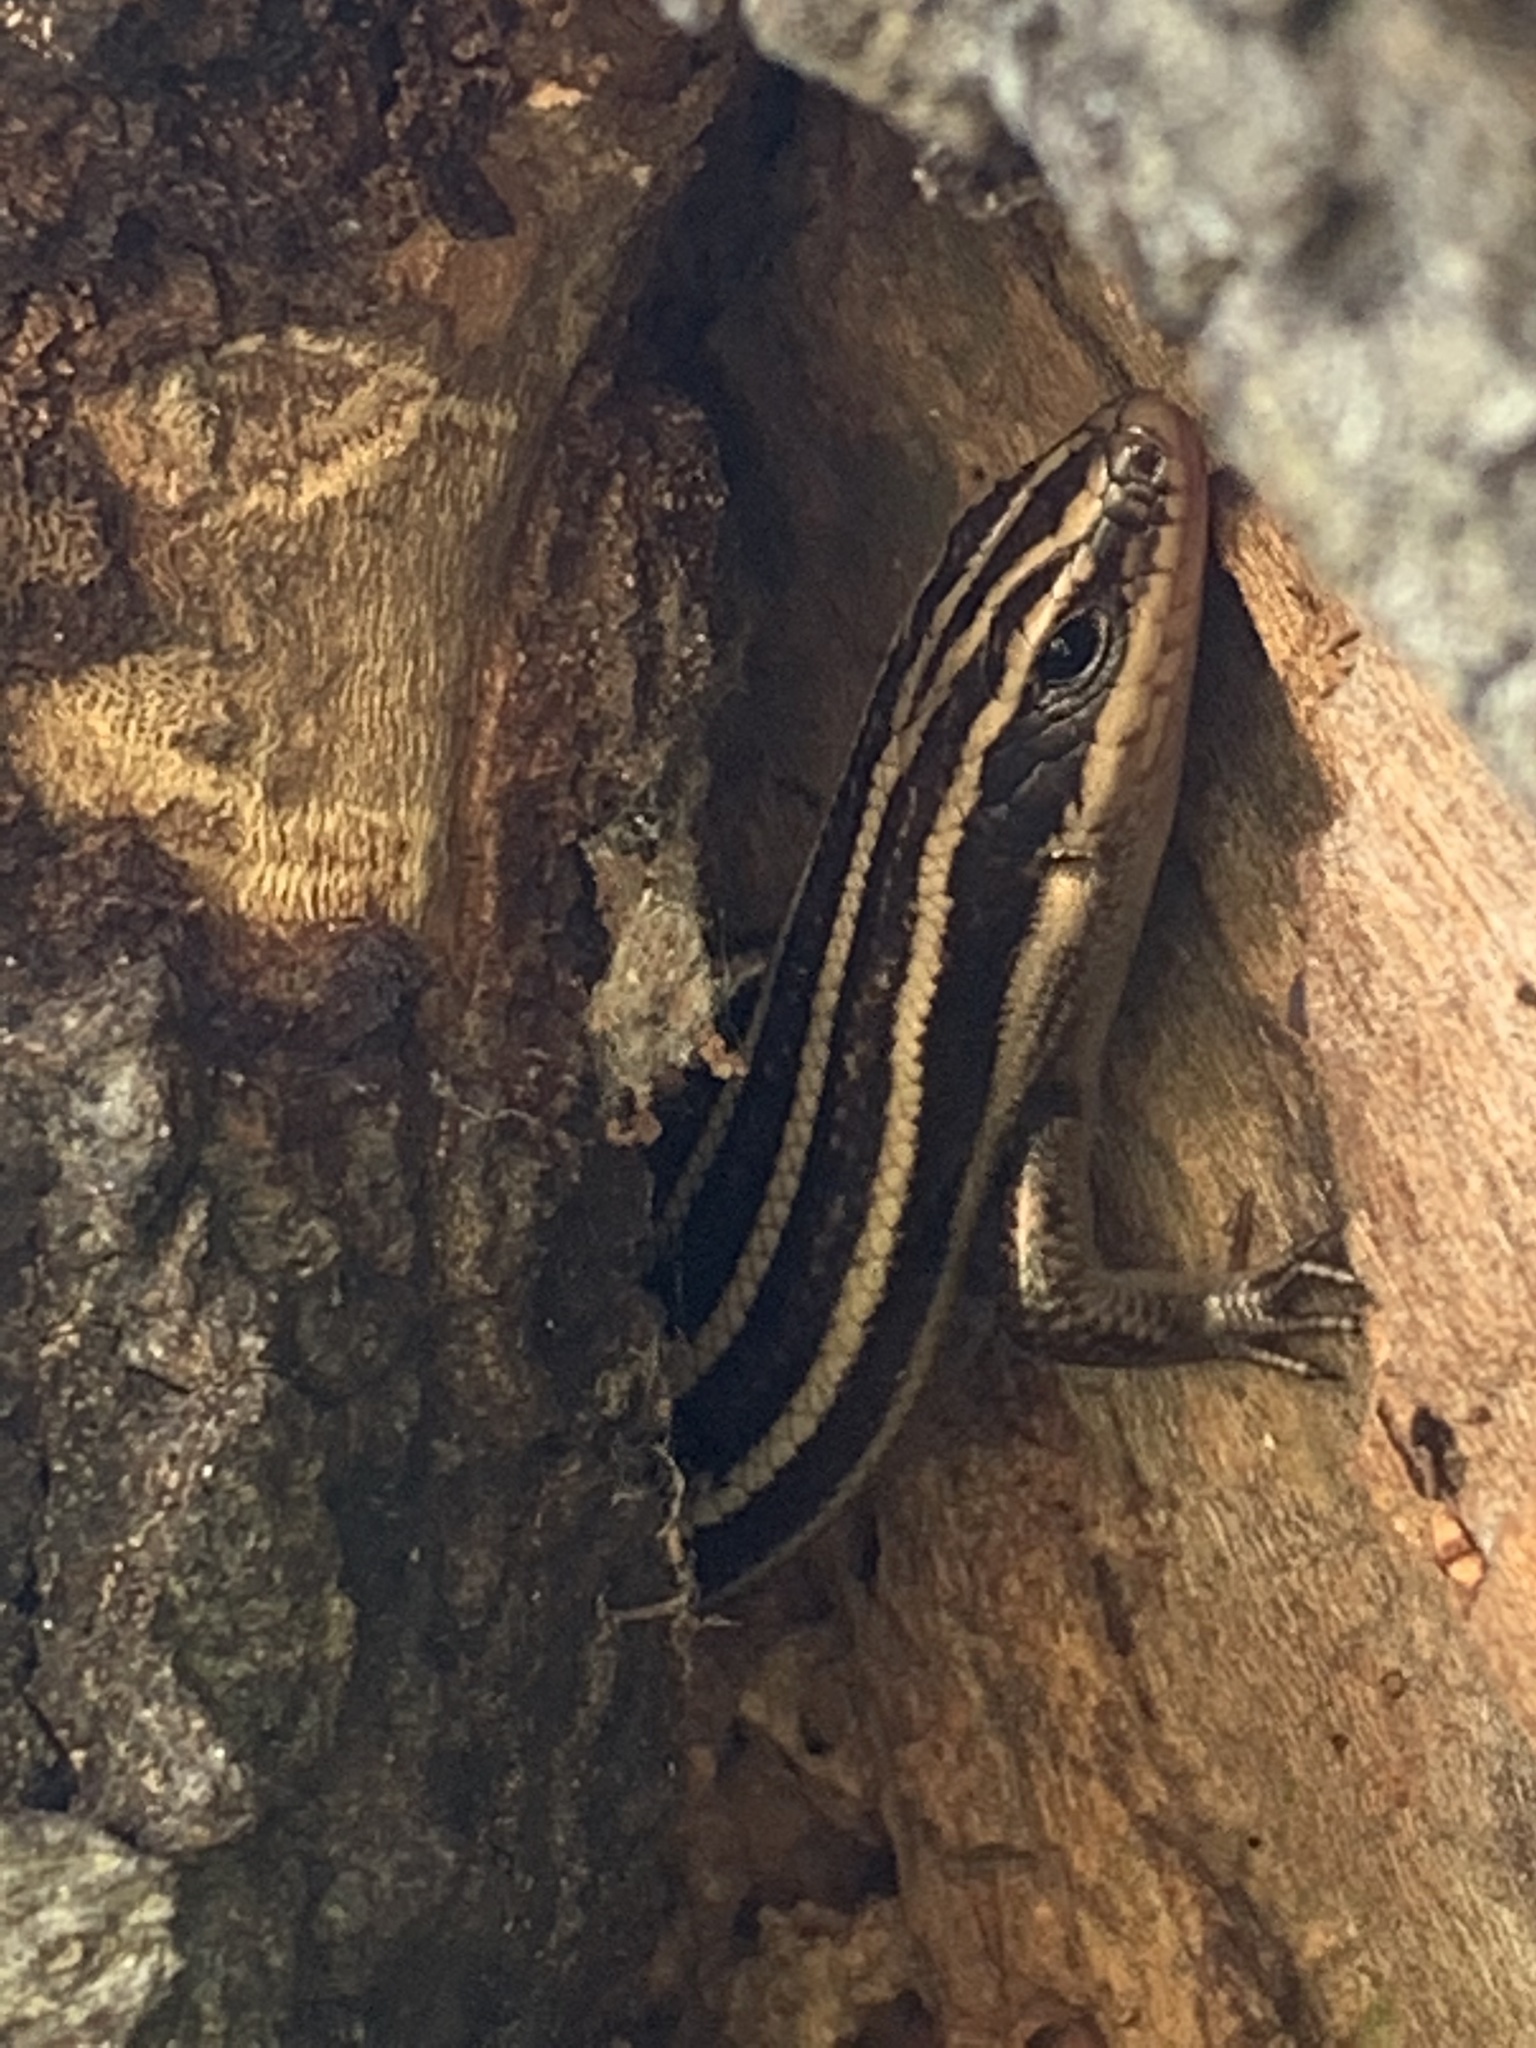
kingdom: Animalia
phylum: Chordata
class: Squamata
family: Scincidae
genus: Plestiodon
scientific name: Plestiodon fasciatus
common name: Five-lined skink
